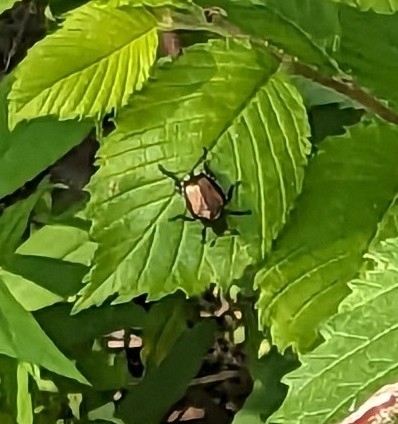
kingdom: Animalia
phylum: Arthropoda
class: Insecta
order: Coleoptera
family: Scarabaeidae
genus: Popillia
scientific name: Popillia japonica
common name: Japanese beetle
